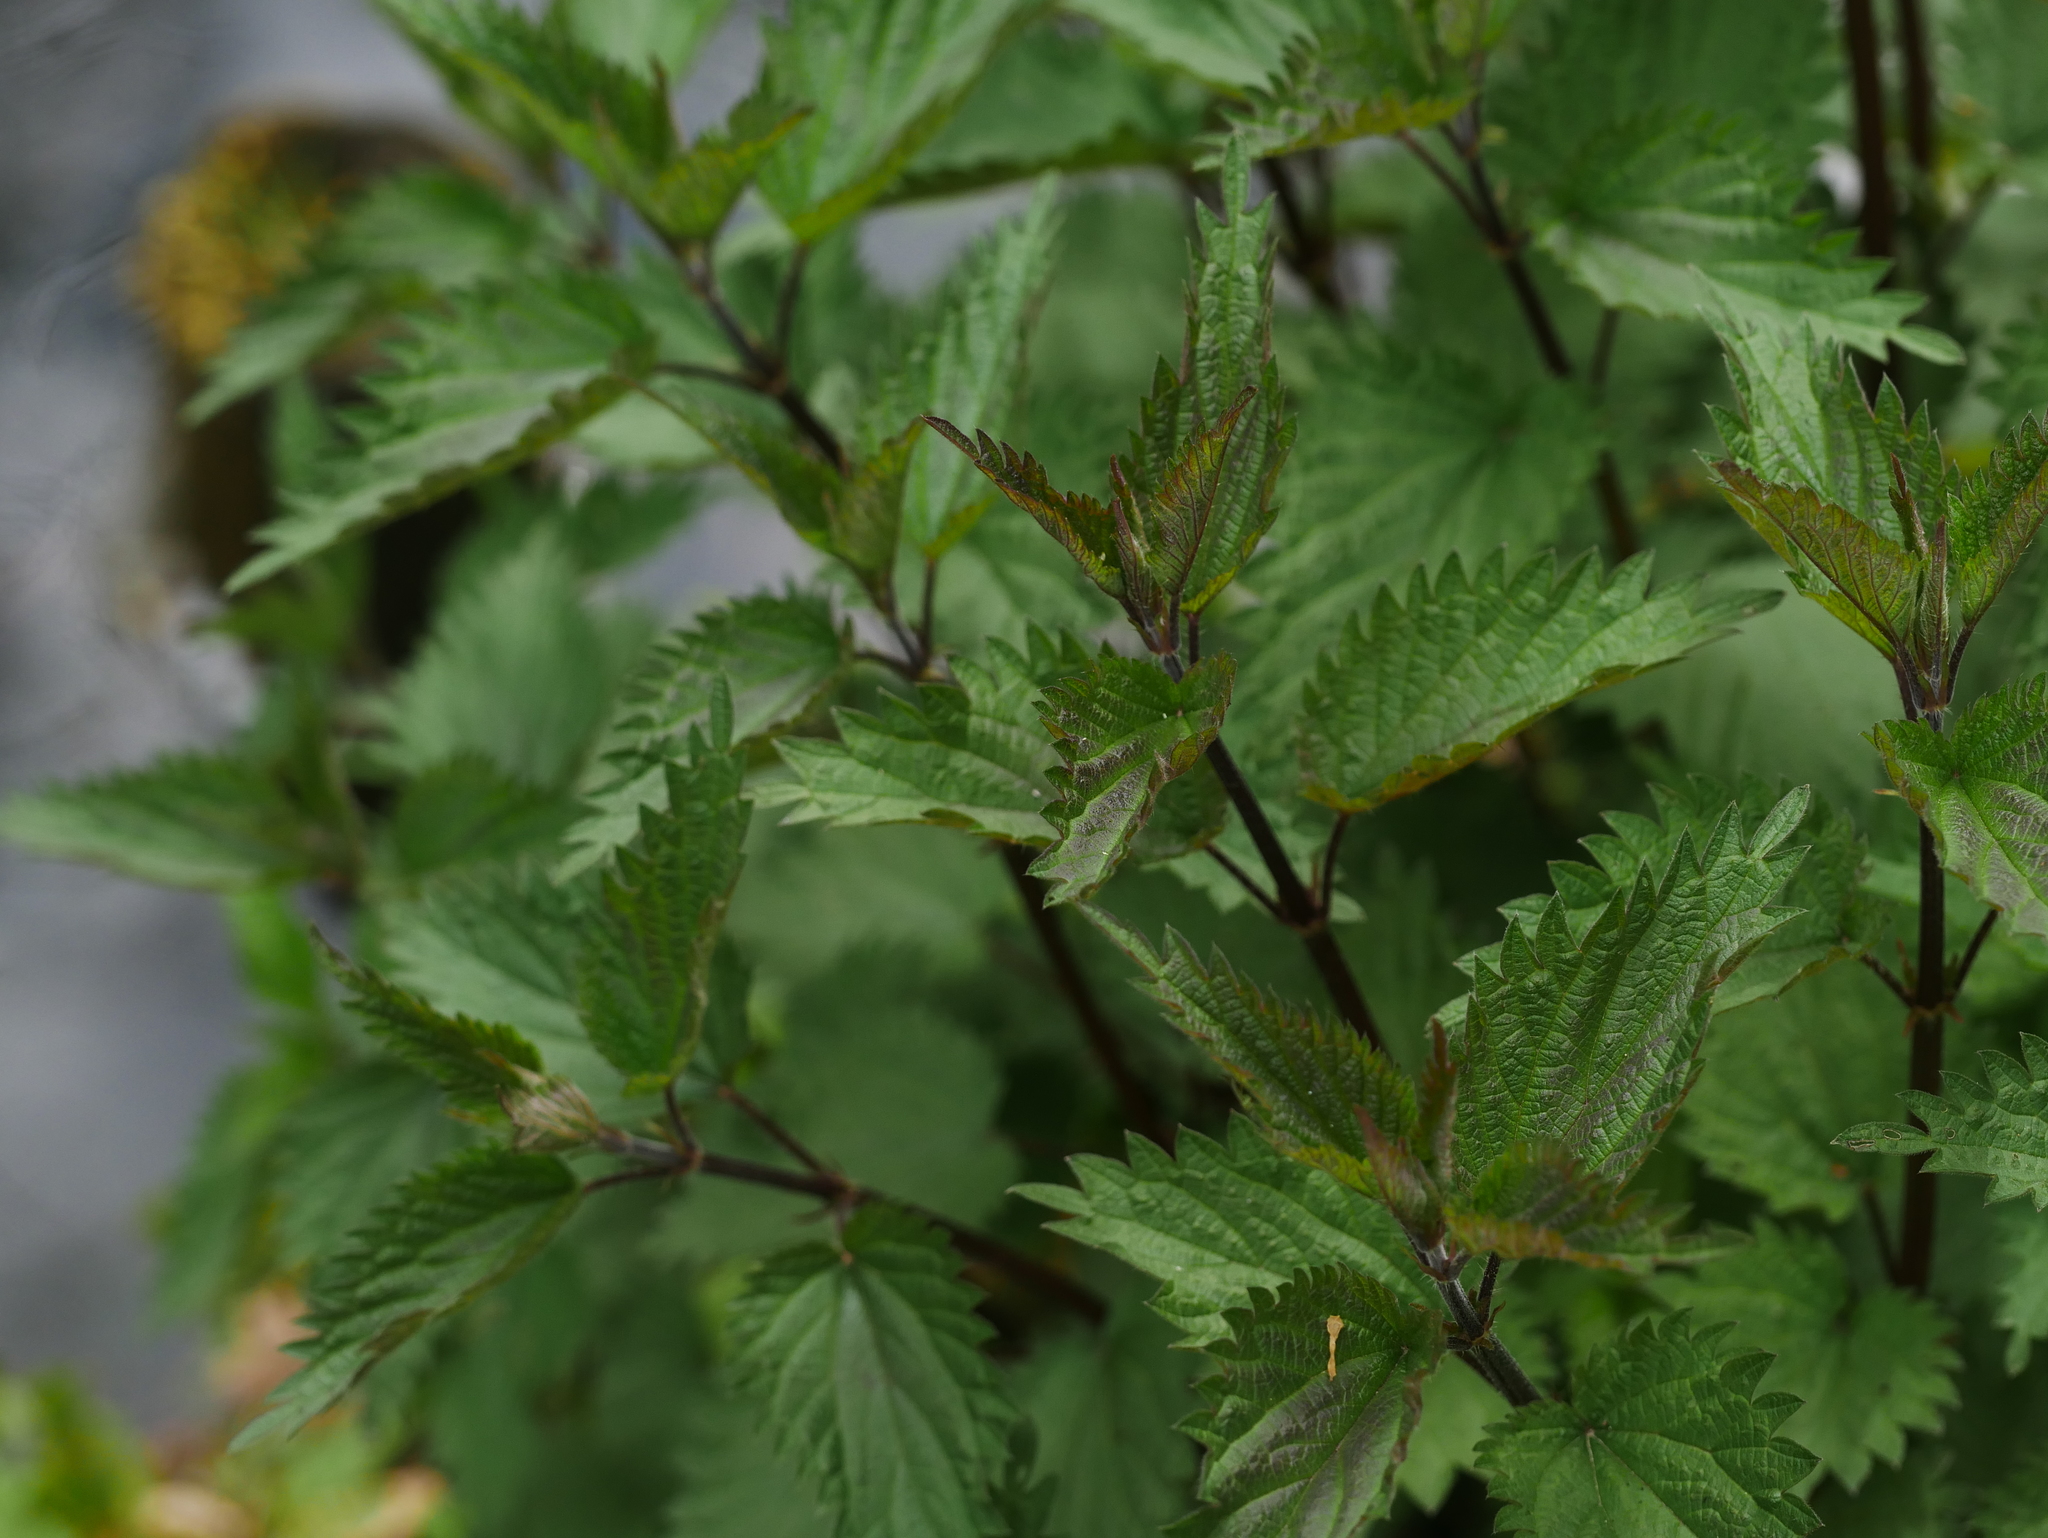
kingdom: Plantae
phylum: Tracheophyta
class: Magnoliopsida
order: Rosales
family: Urticaceae
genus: Urtica
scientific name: Urtica dioica
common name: Common nettle
